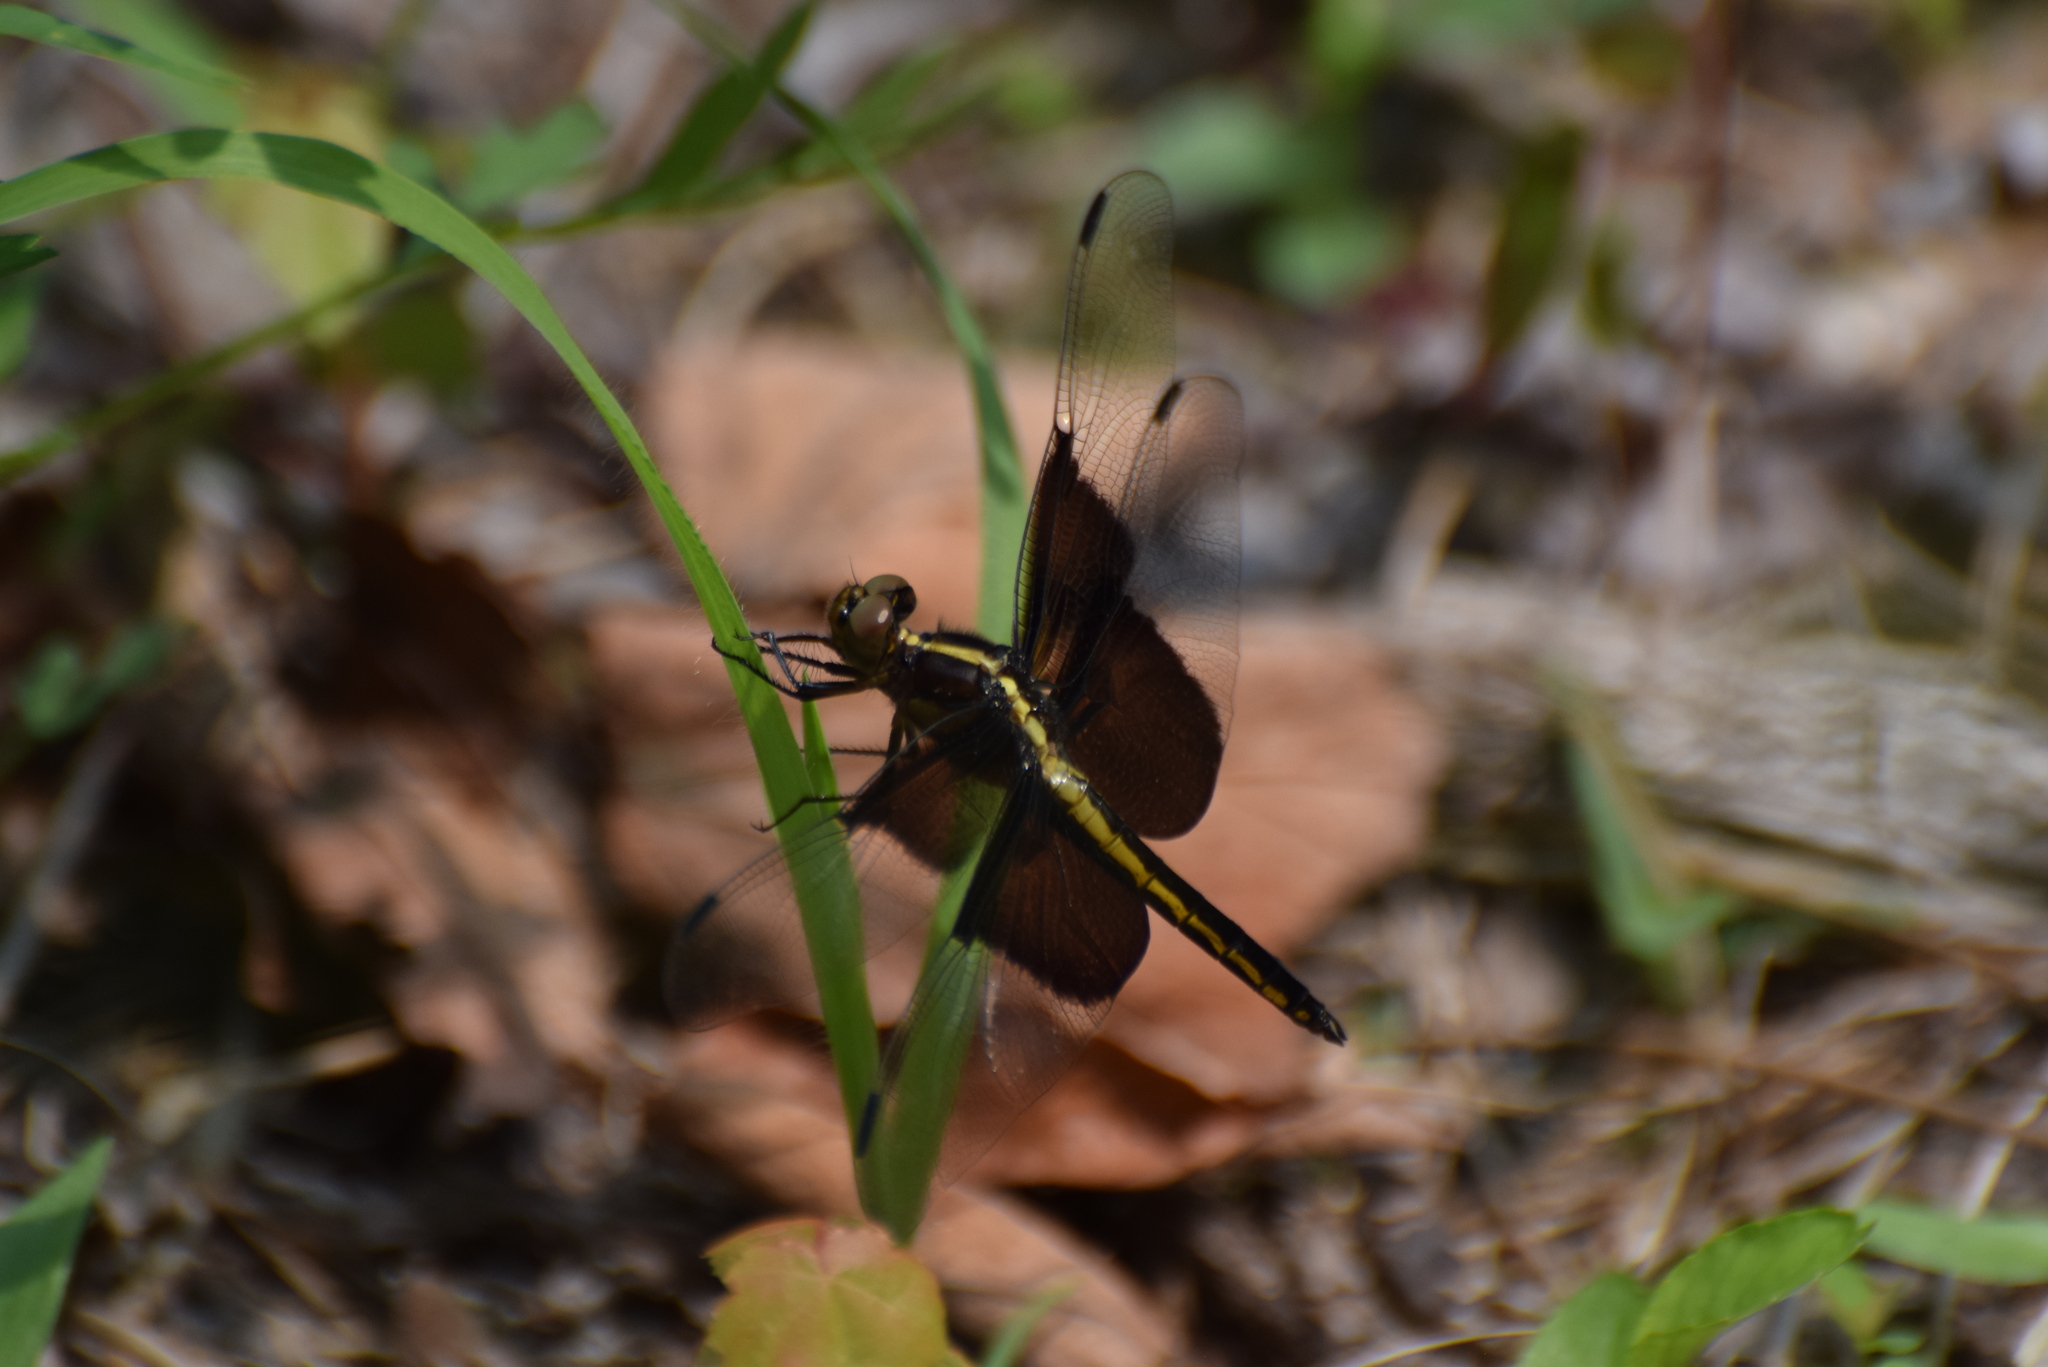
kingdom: Animalia
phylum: Arthropoda
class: Insecta
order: Odonata
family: Libellulidae
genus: Libellula
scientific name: Libellula luctuosa
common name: Widow skimmer
